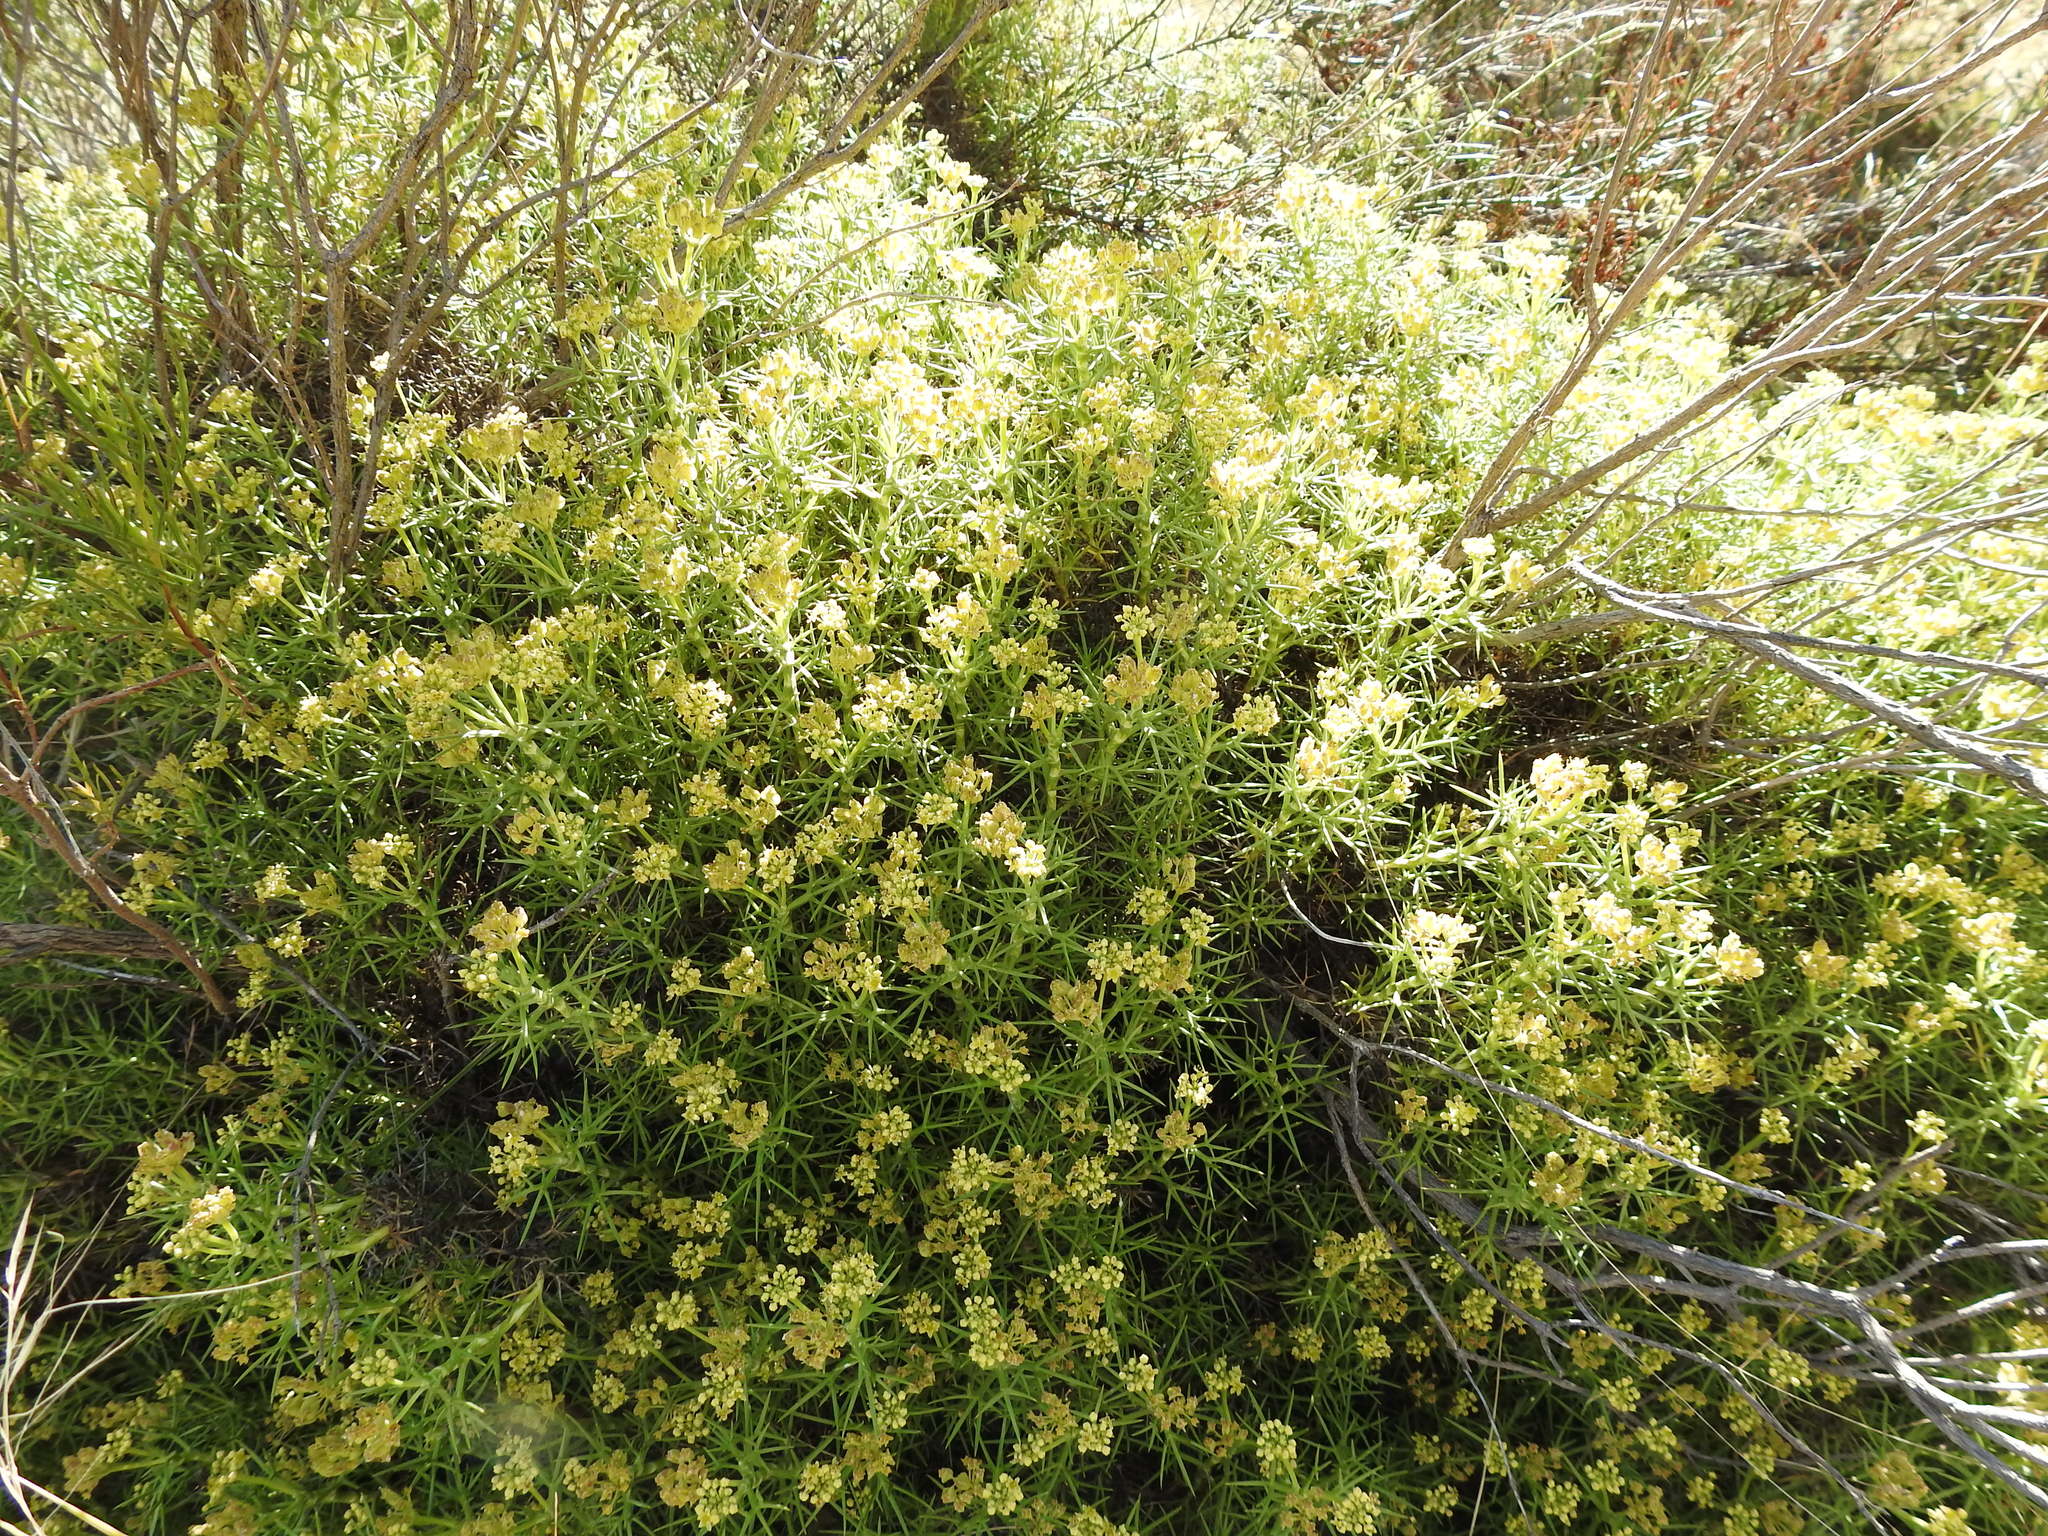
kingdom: Plantae
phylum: Tracheophyta
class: Magnoliopsida
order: Apiales
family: Apiaceae
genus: Azorella
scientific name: Azorella prolifera
